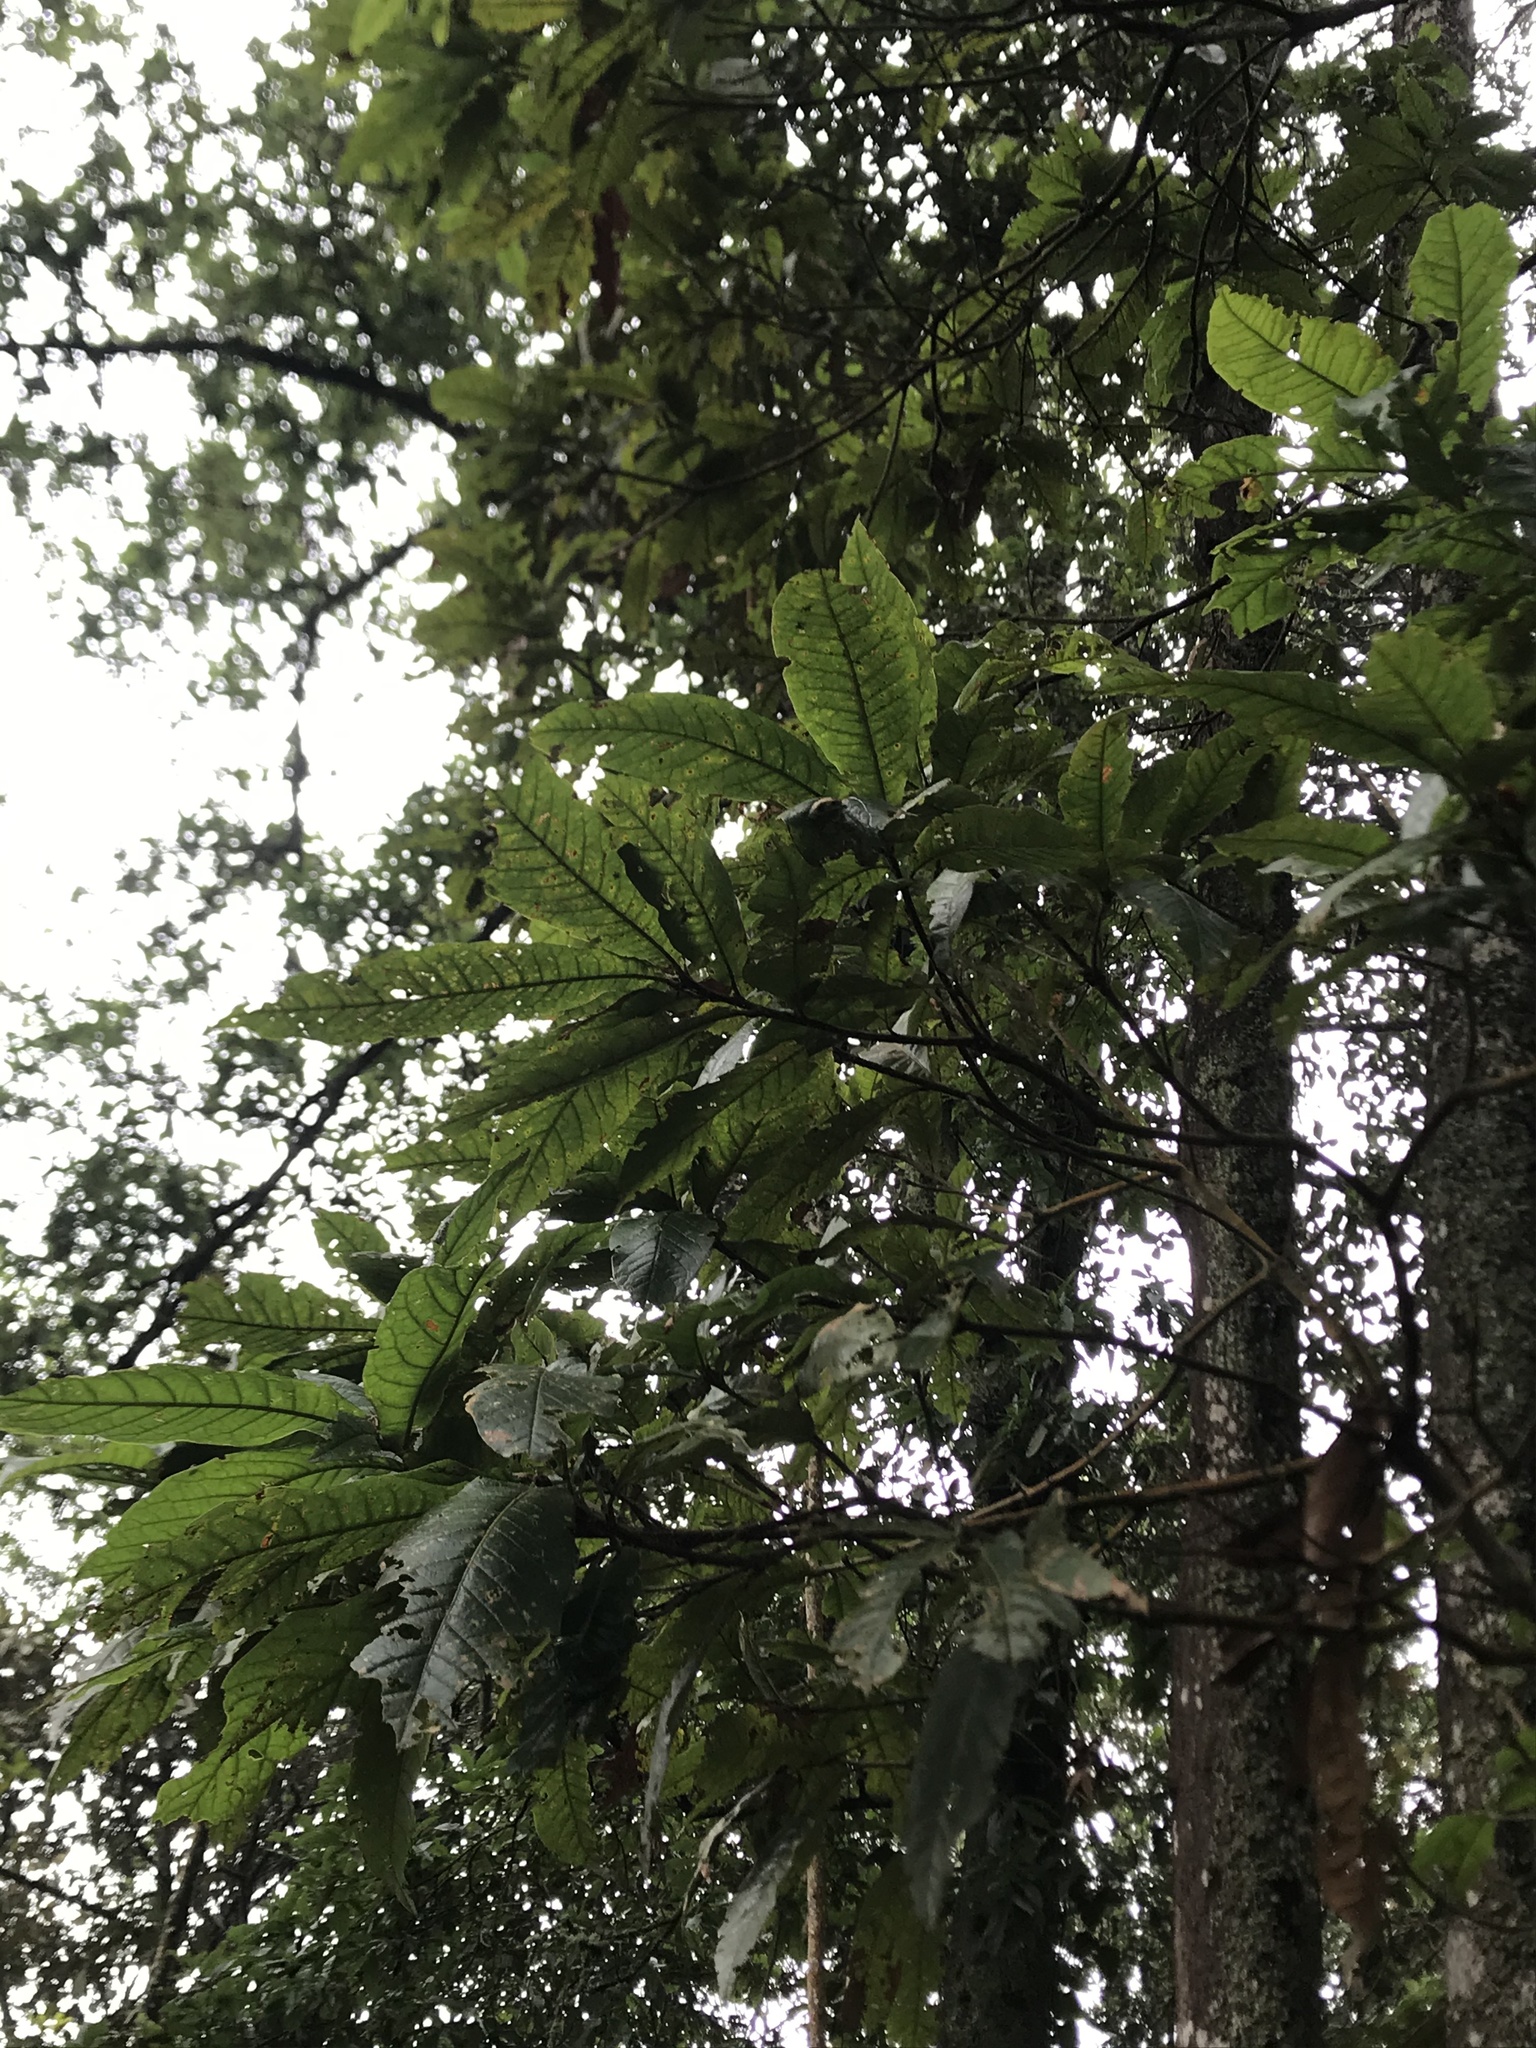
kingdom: Plantae
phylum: Tracheophyta
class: Magnoliopsida
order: Fagales
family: Fagaceae
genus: Quercus
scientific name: Quercus humboldtii
